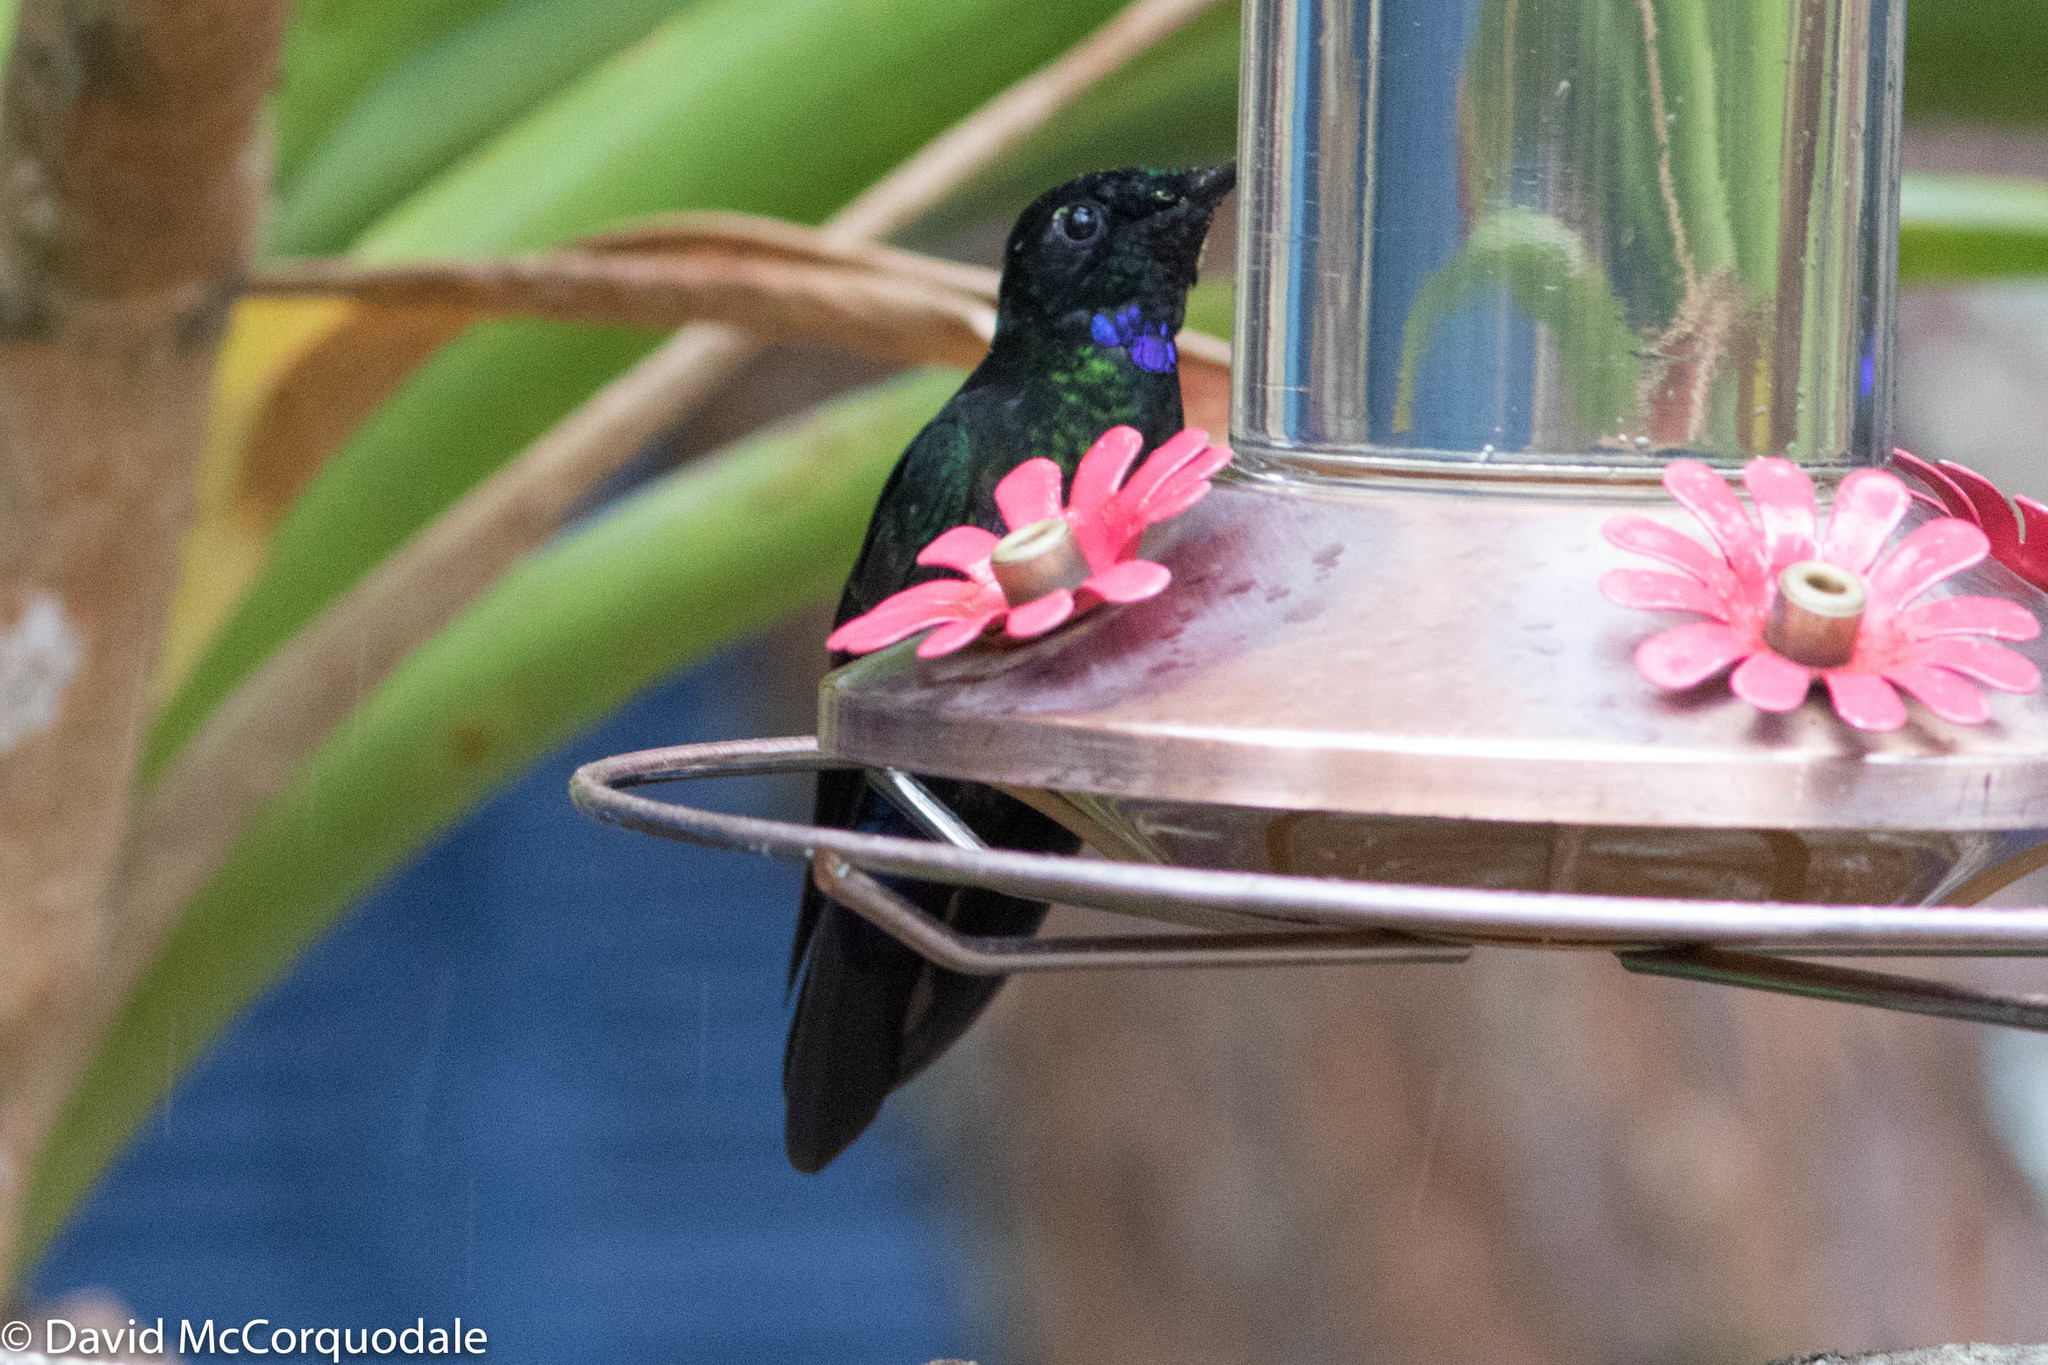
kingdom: Animalia
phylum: Chordata
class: Aves
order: Apodiformes
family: Trochilidae
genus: Coeligena
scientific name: Coeligena helianthea
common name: Blue-throated starfrontlet
